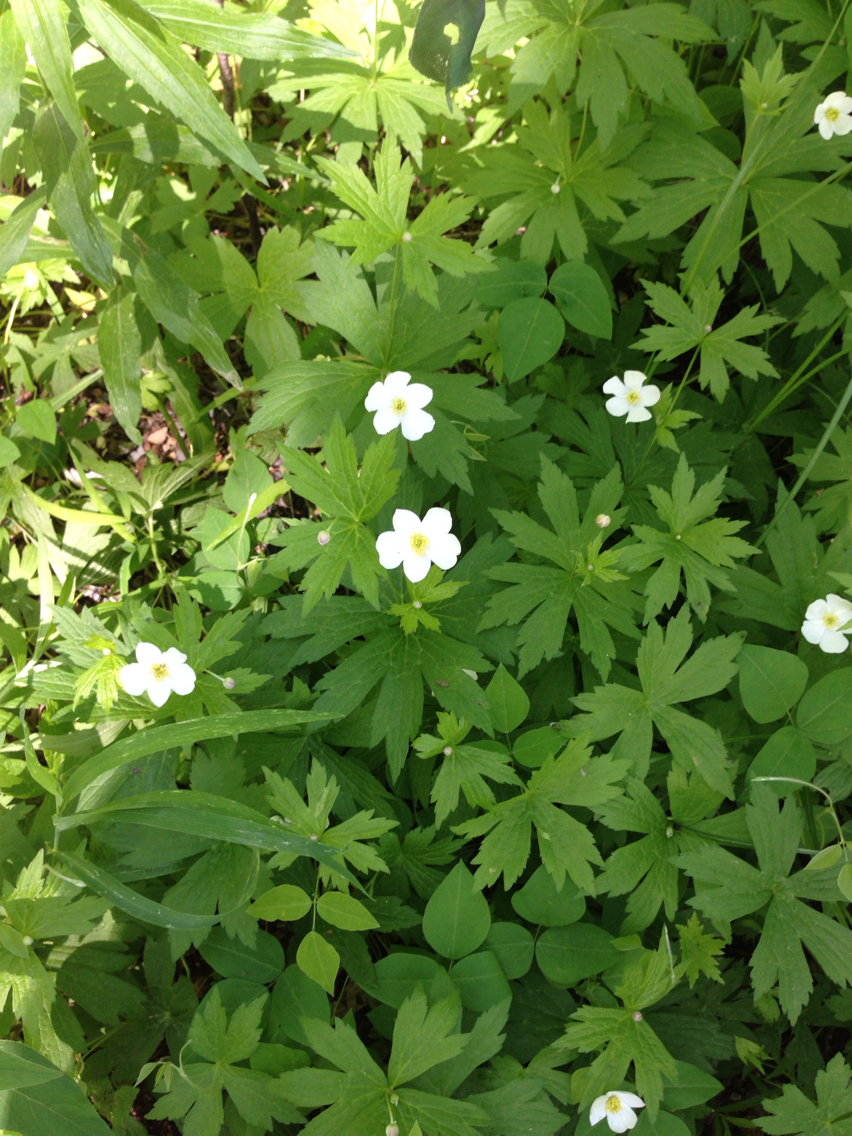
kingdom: Plantae
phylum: Tracheophyta
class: Magnoliopsida
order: Ranunculales
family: Ranunculaceae
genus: Anemonastrum
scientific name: Anemonastrum canadense
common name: Canada anemone
